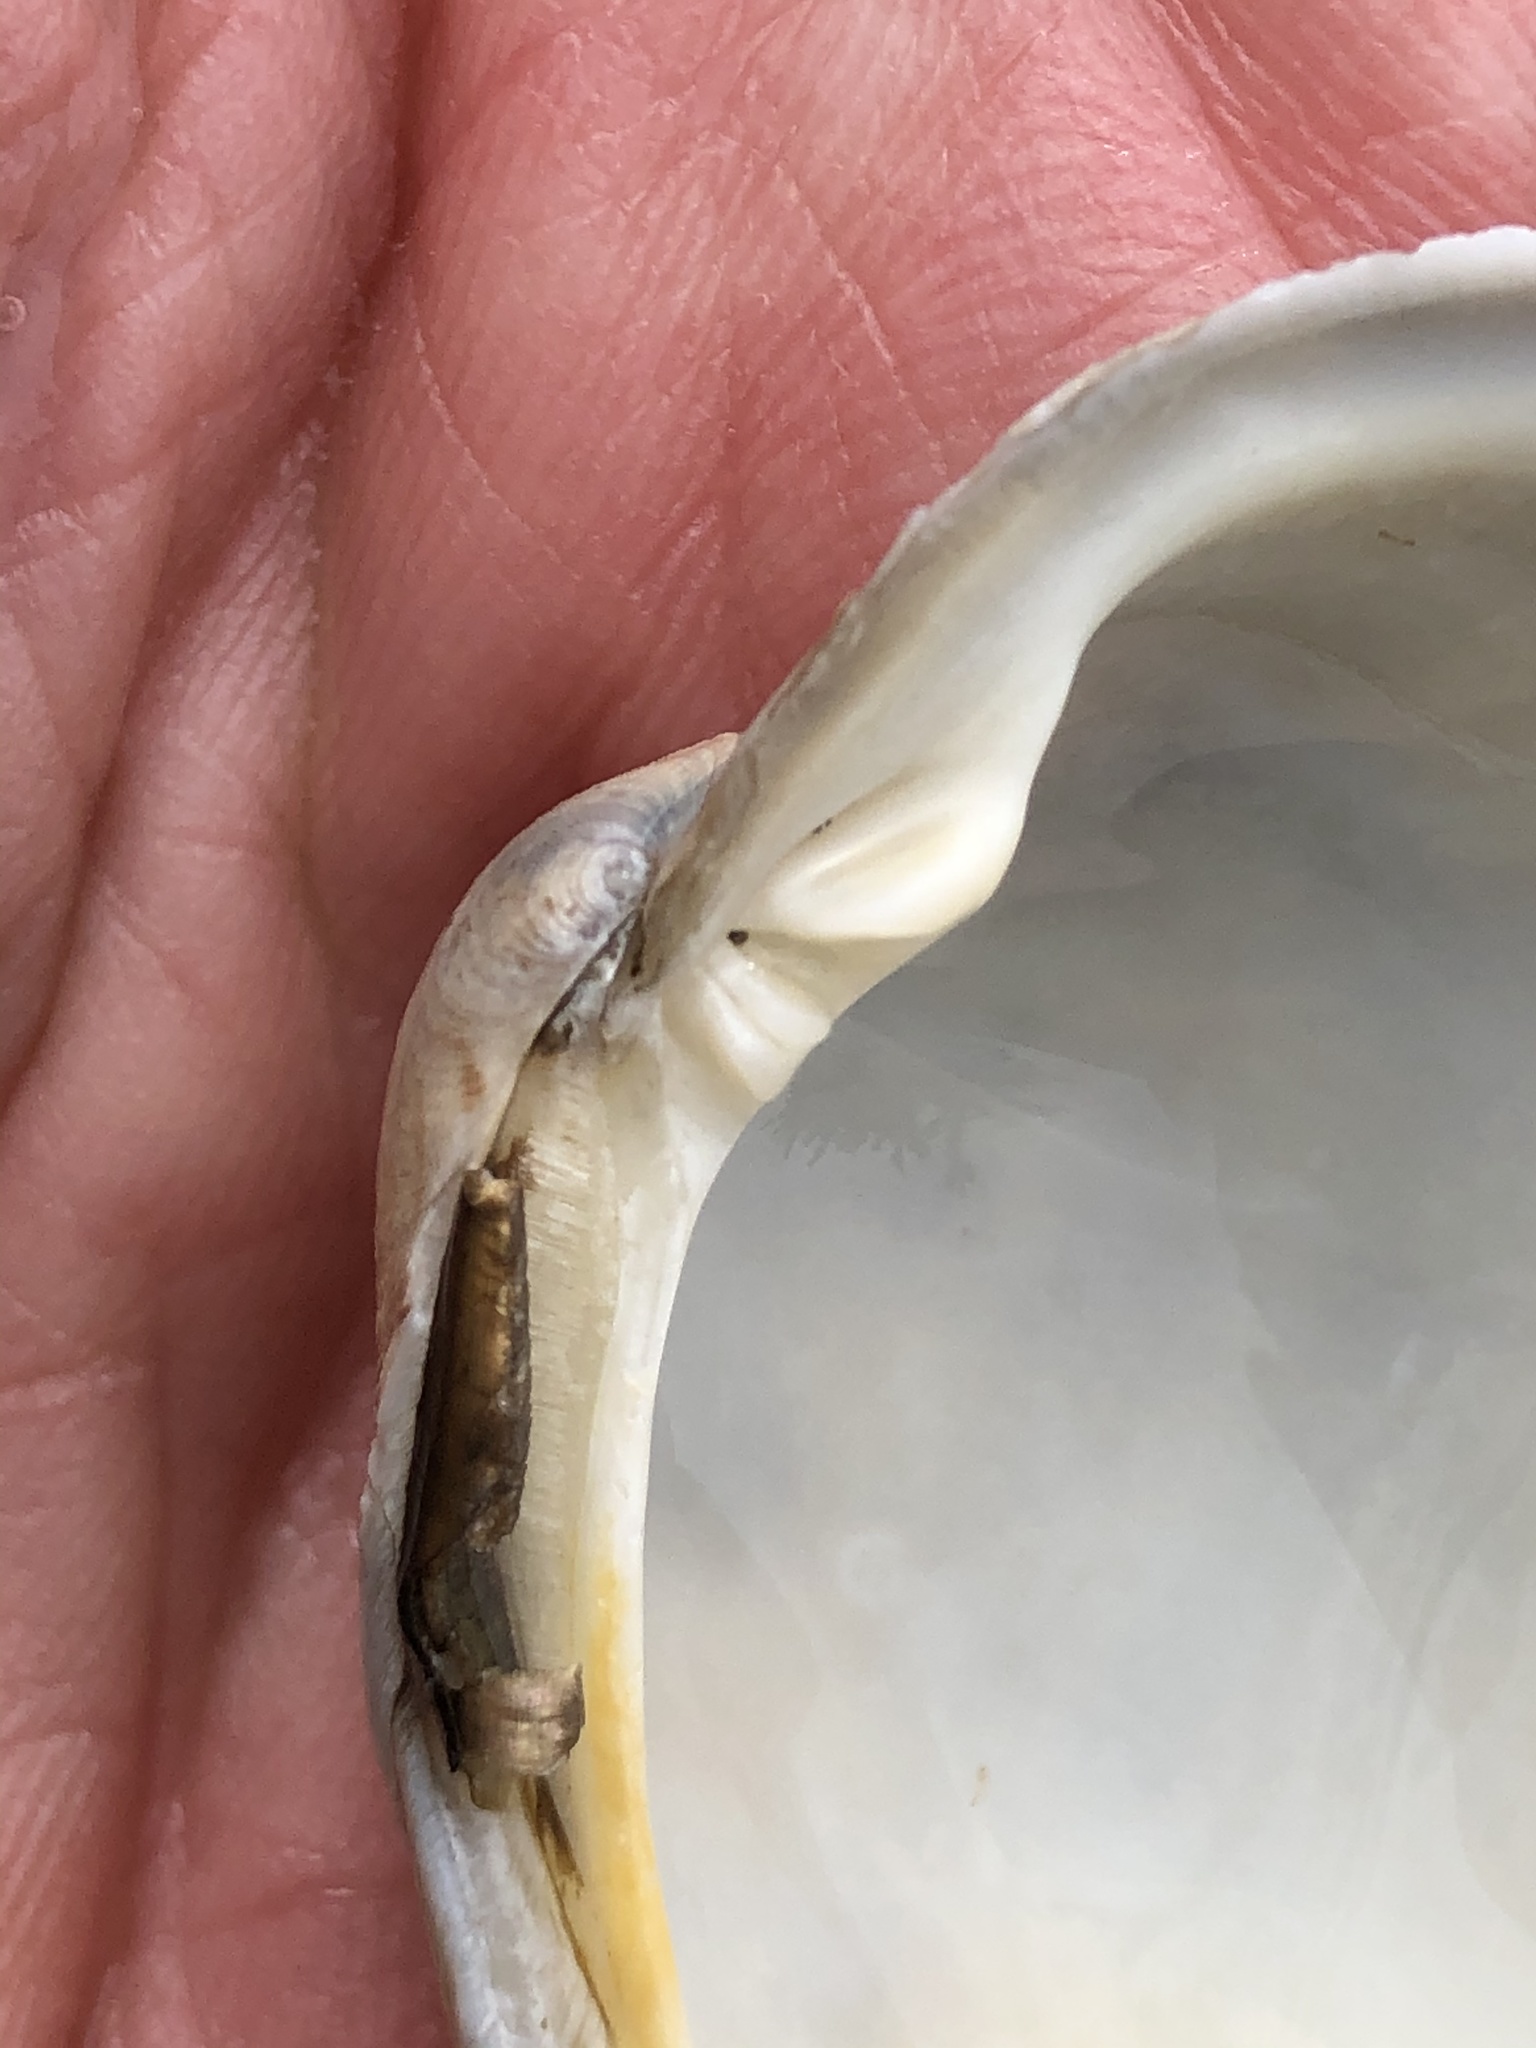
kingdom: Animalia
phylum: Mollusca
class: Bivalvia
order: Venerida
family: Veneridae
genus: Leukoma
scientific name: Leukoma staminea
